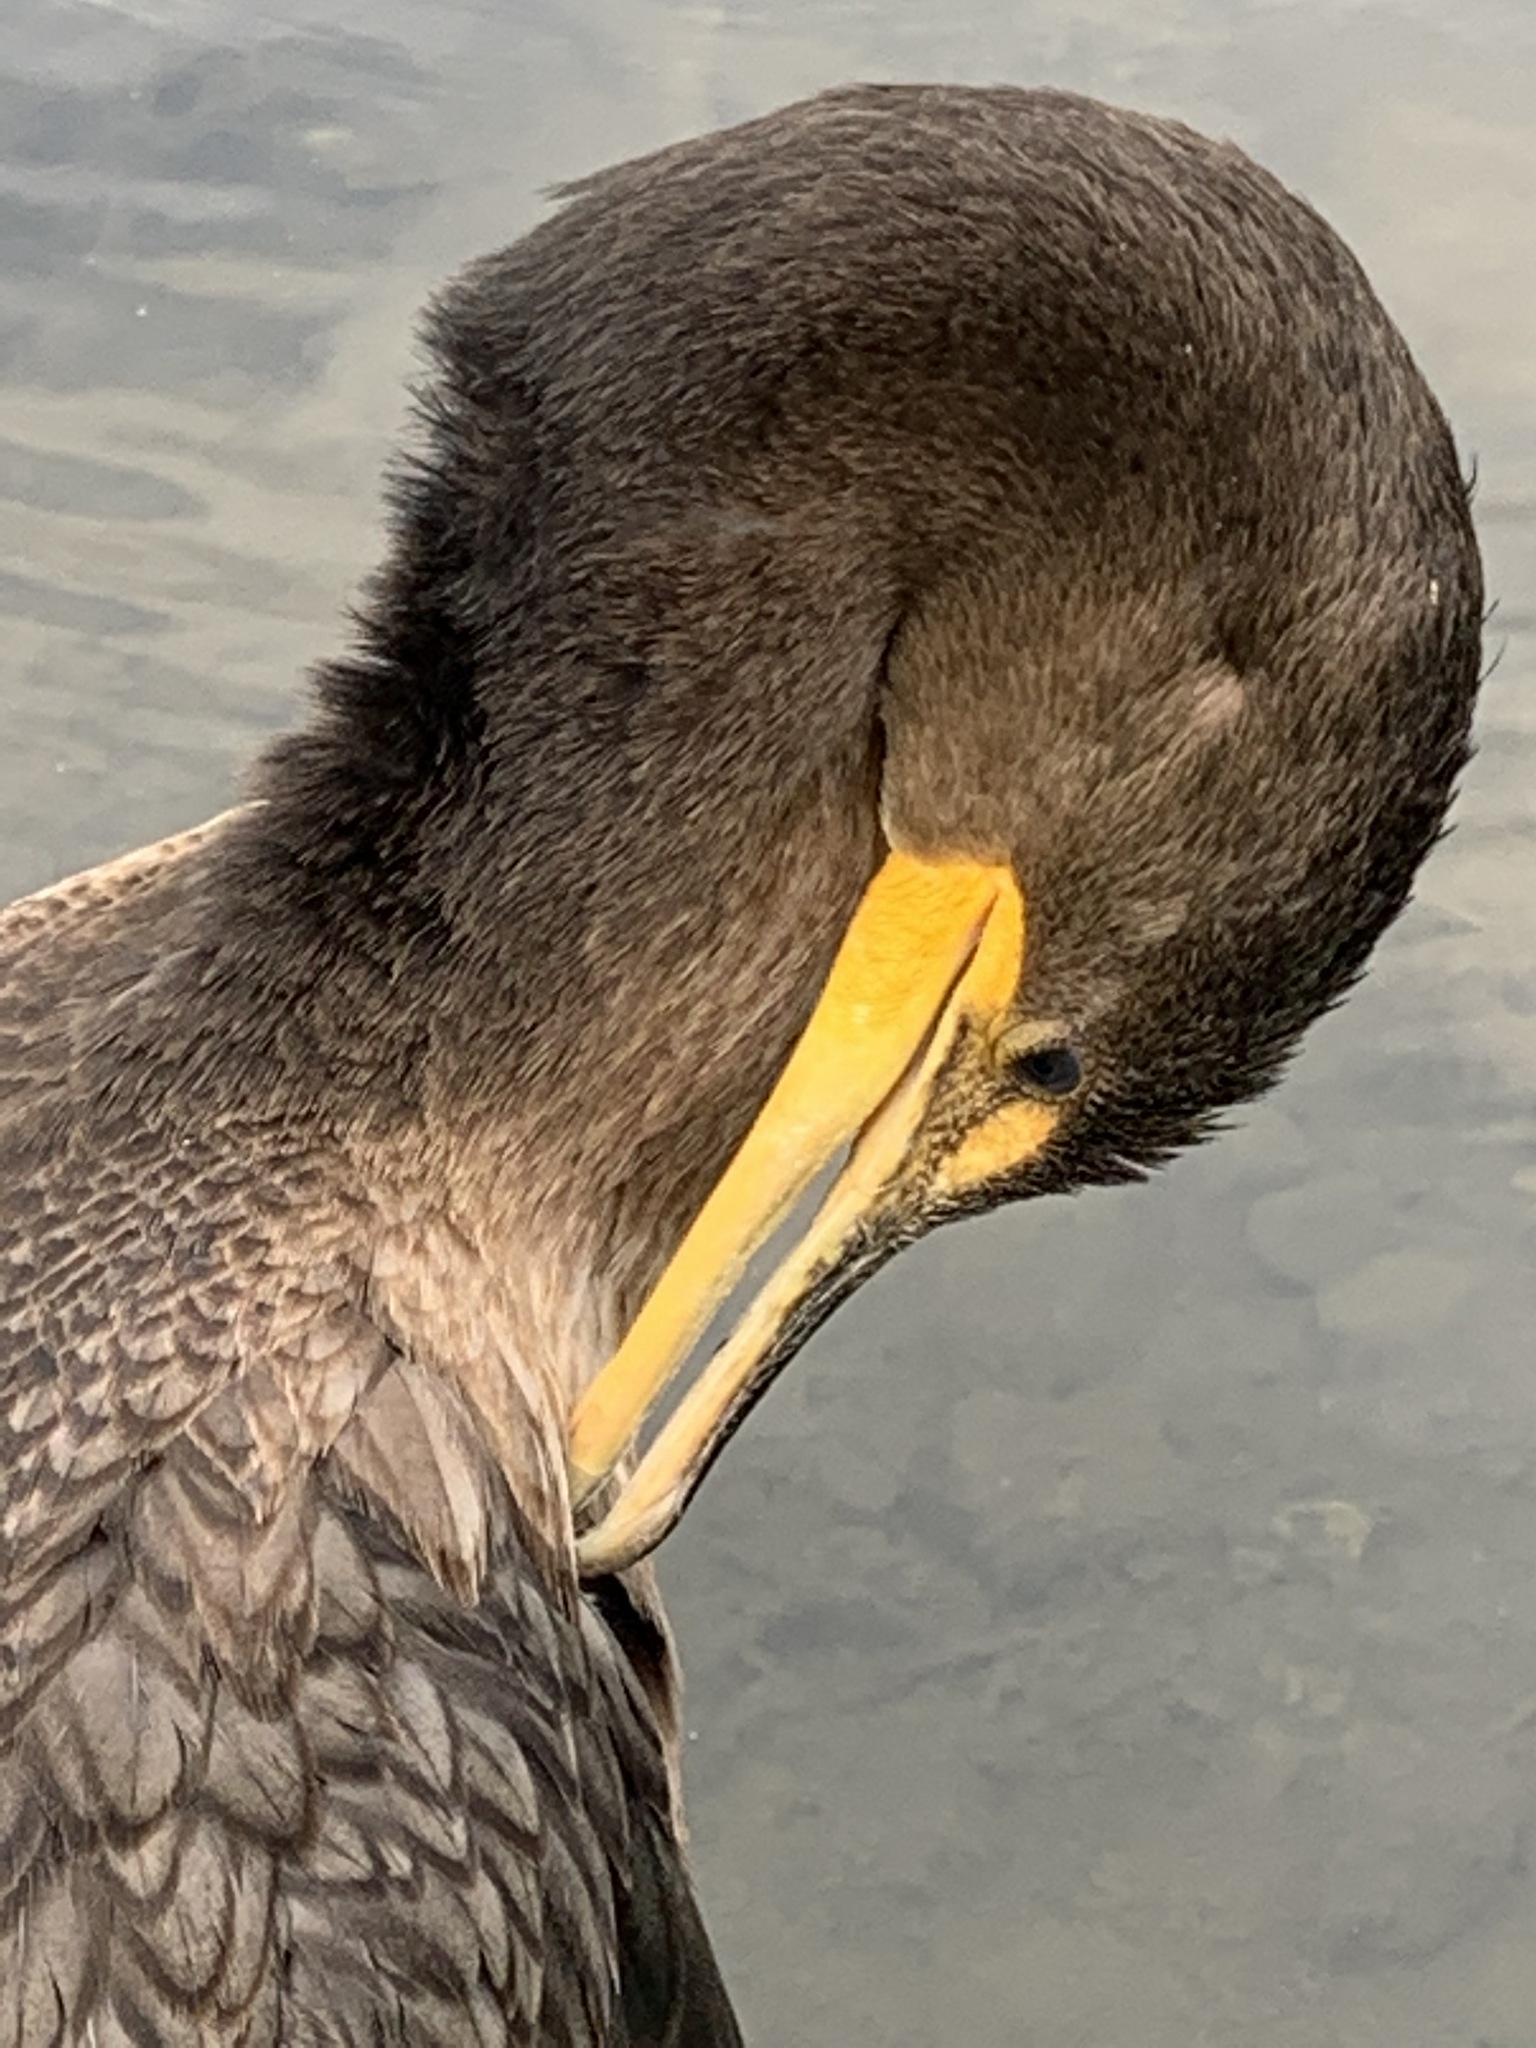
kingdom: Animalia
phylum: Chordata
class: Aves
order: Suliformes
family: Phalacrocoracidae
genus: Phalacrocorax
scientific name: Phalacrocorax auritus
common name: Double-crested cormorant
